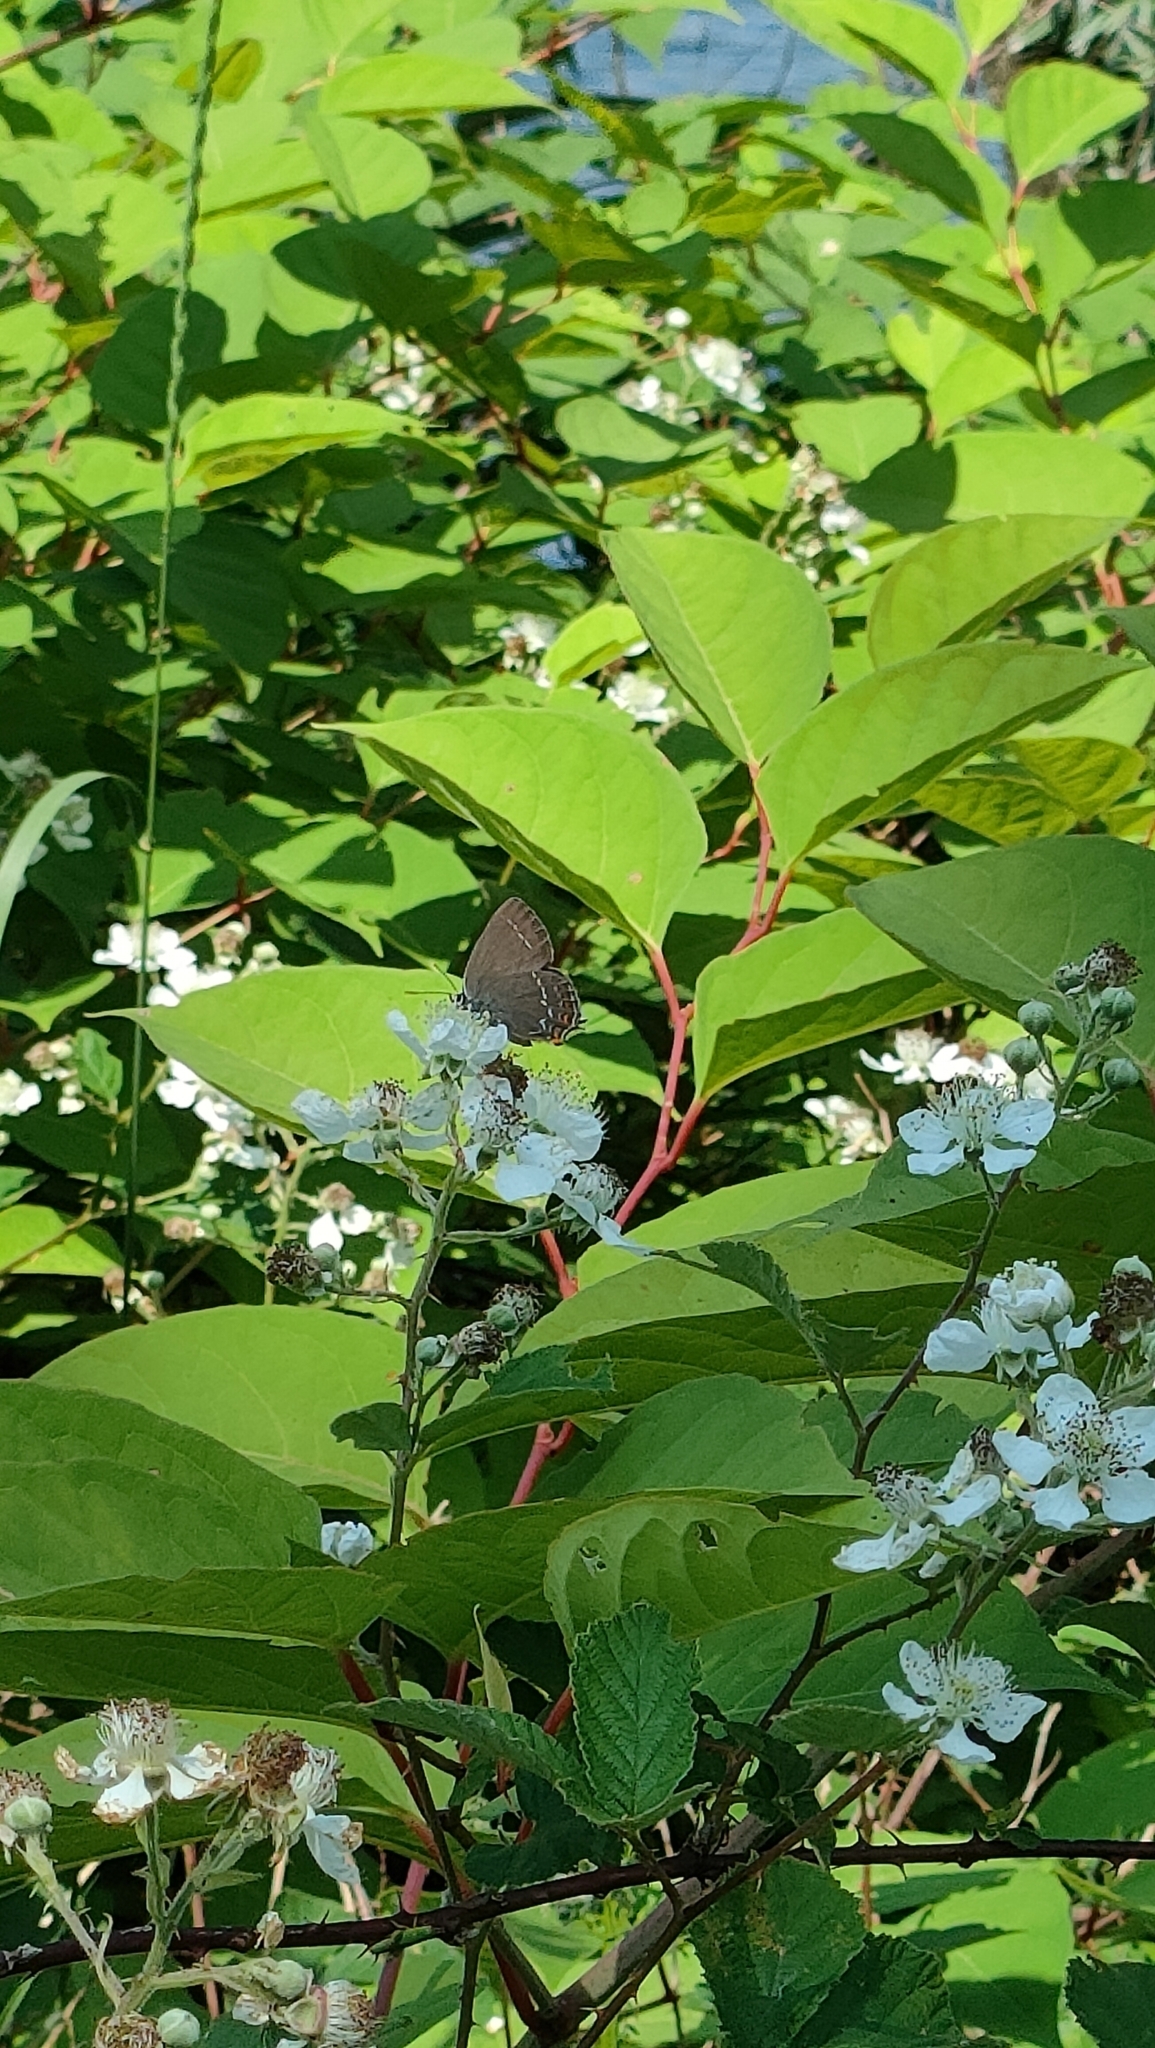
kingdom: Animalia
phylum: Arthropoda
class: Insecta
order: Lepidoptera
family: Lycaenidae
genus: Nordmannia
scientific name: Nordmannia ilicis
